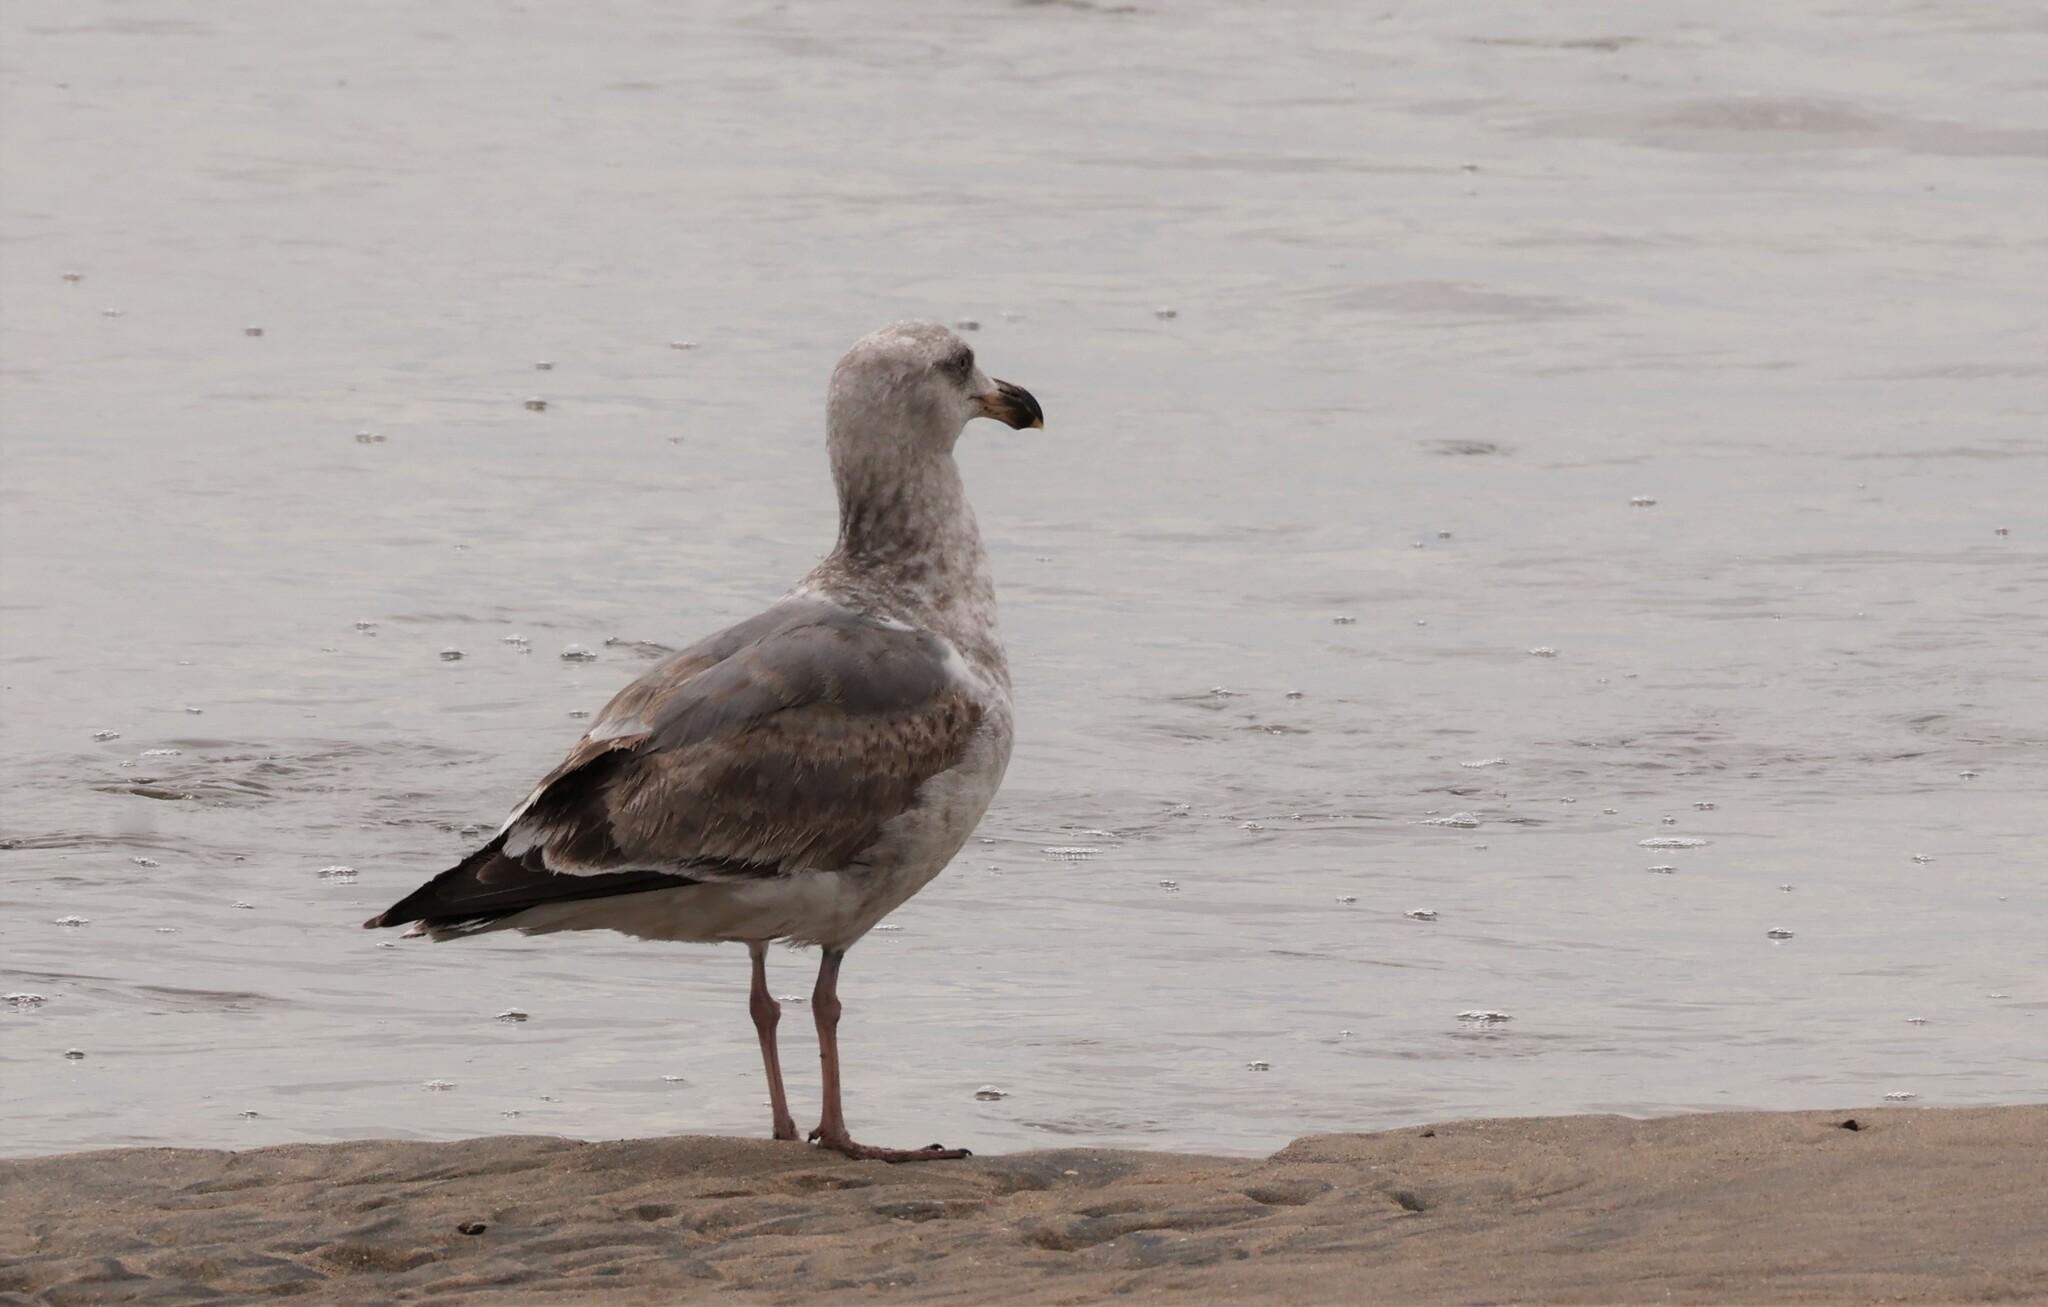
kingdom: Animalia
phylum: Chordata
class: Aves
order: Charadriiformes
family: Laridae
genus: Larus
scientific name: Larus occidentalis
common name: Western gull
